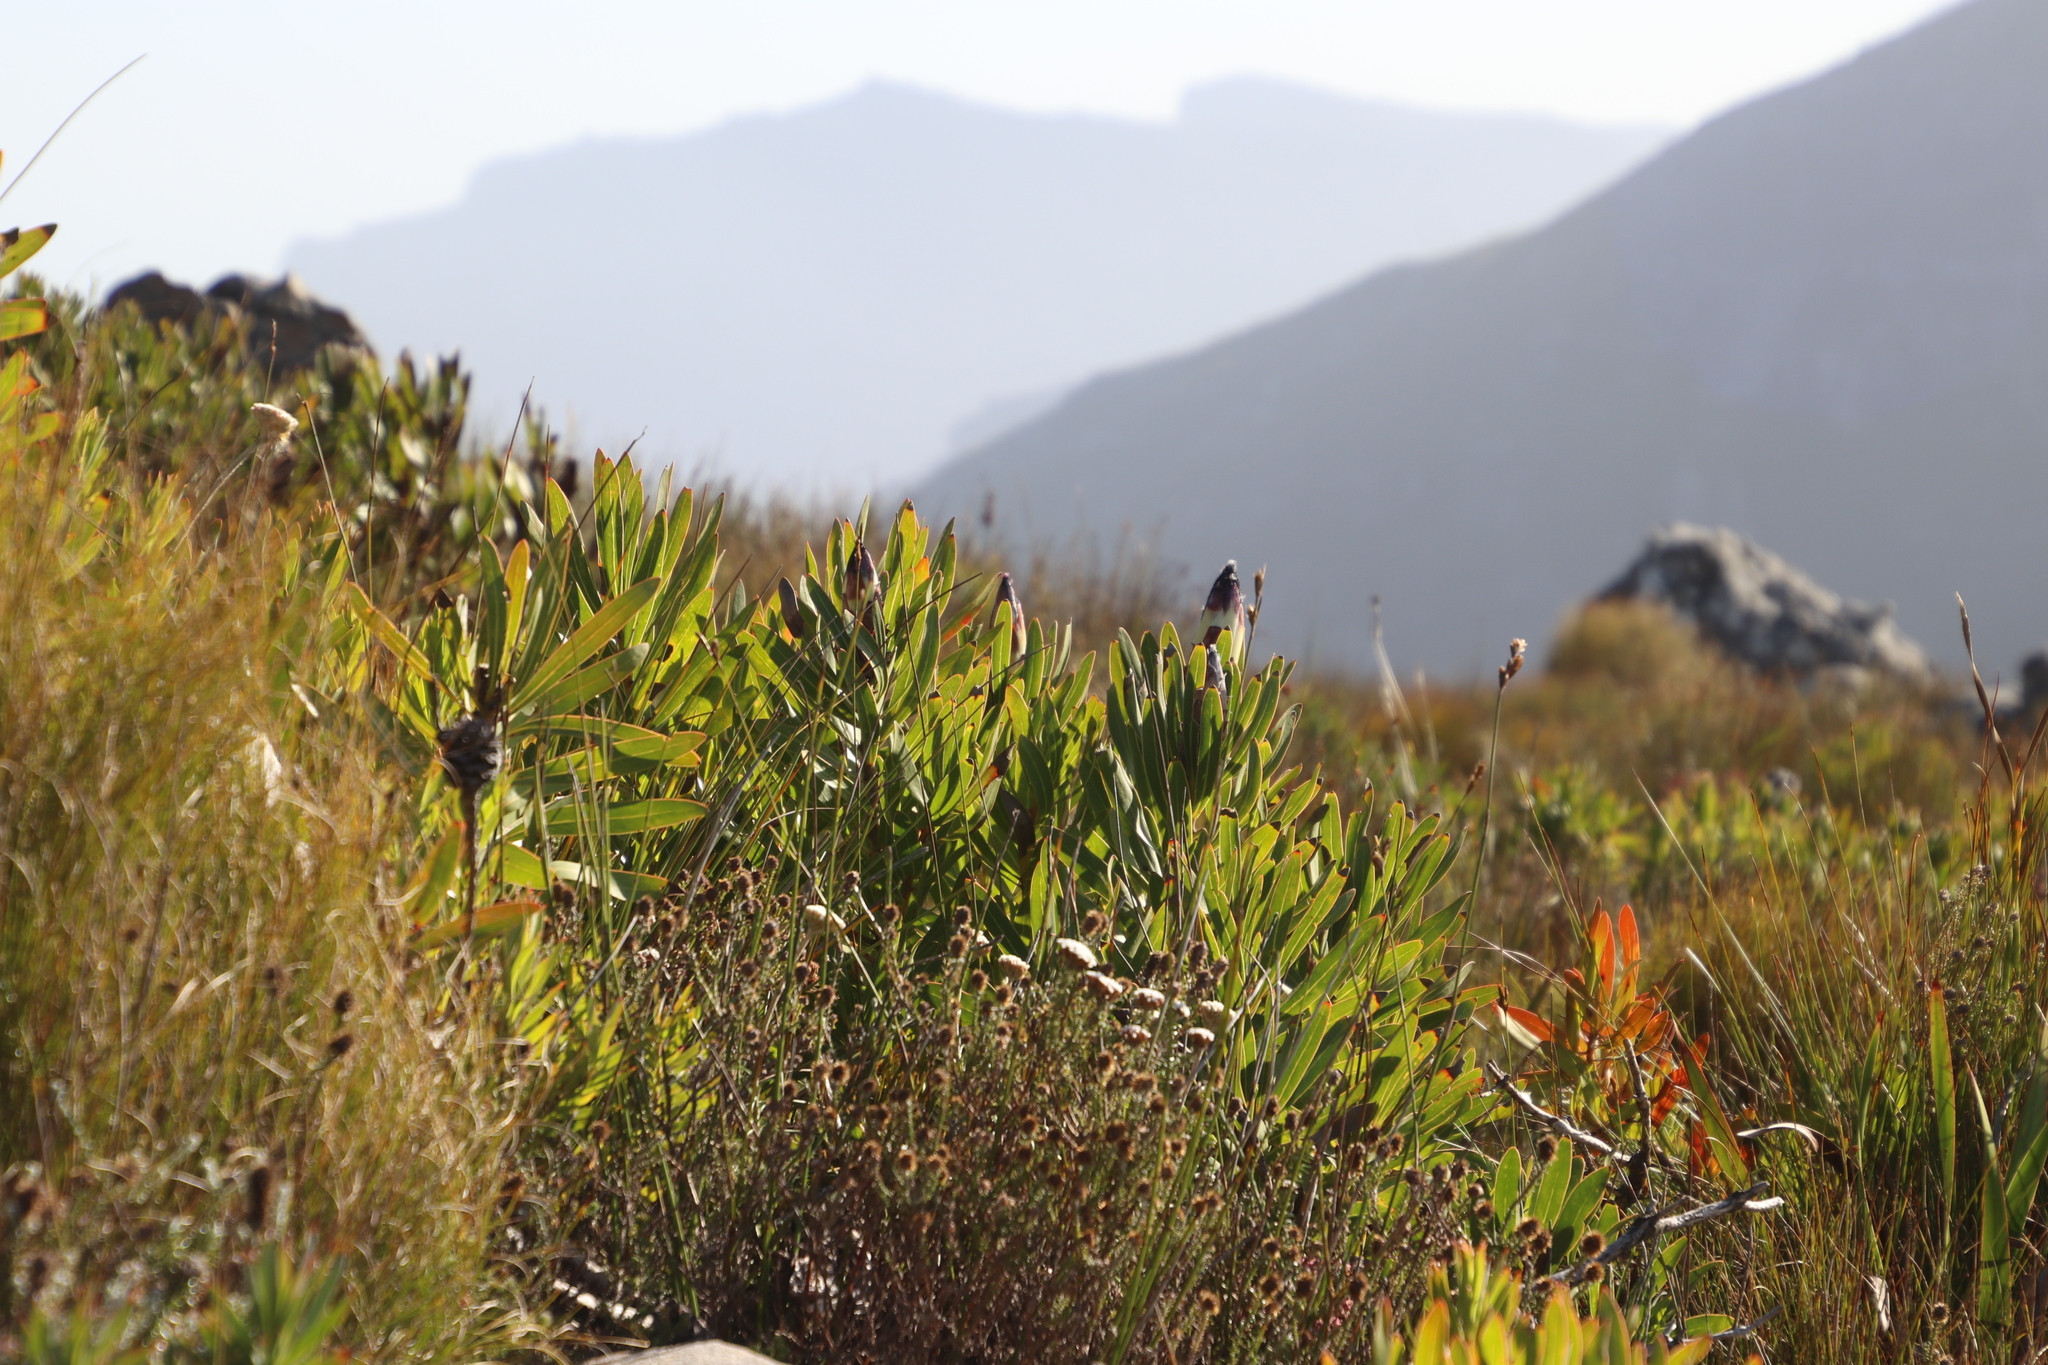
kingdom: Plantae
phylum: Tracheophyta
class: Magnoliopsida
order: Proteales
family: Proteaceae
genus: Protea
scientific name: Protea lepidocarpodendron
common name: Black-bearded protea
